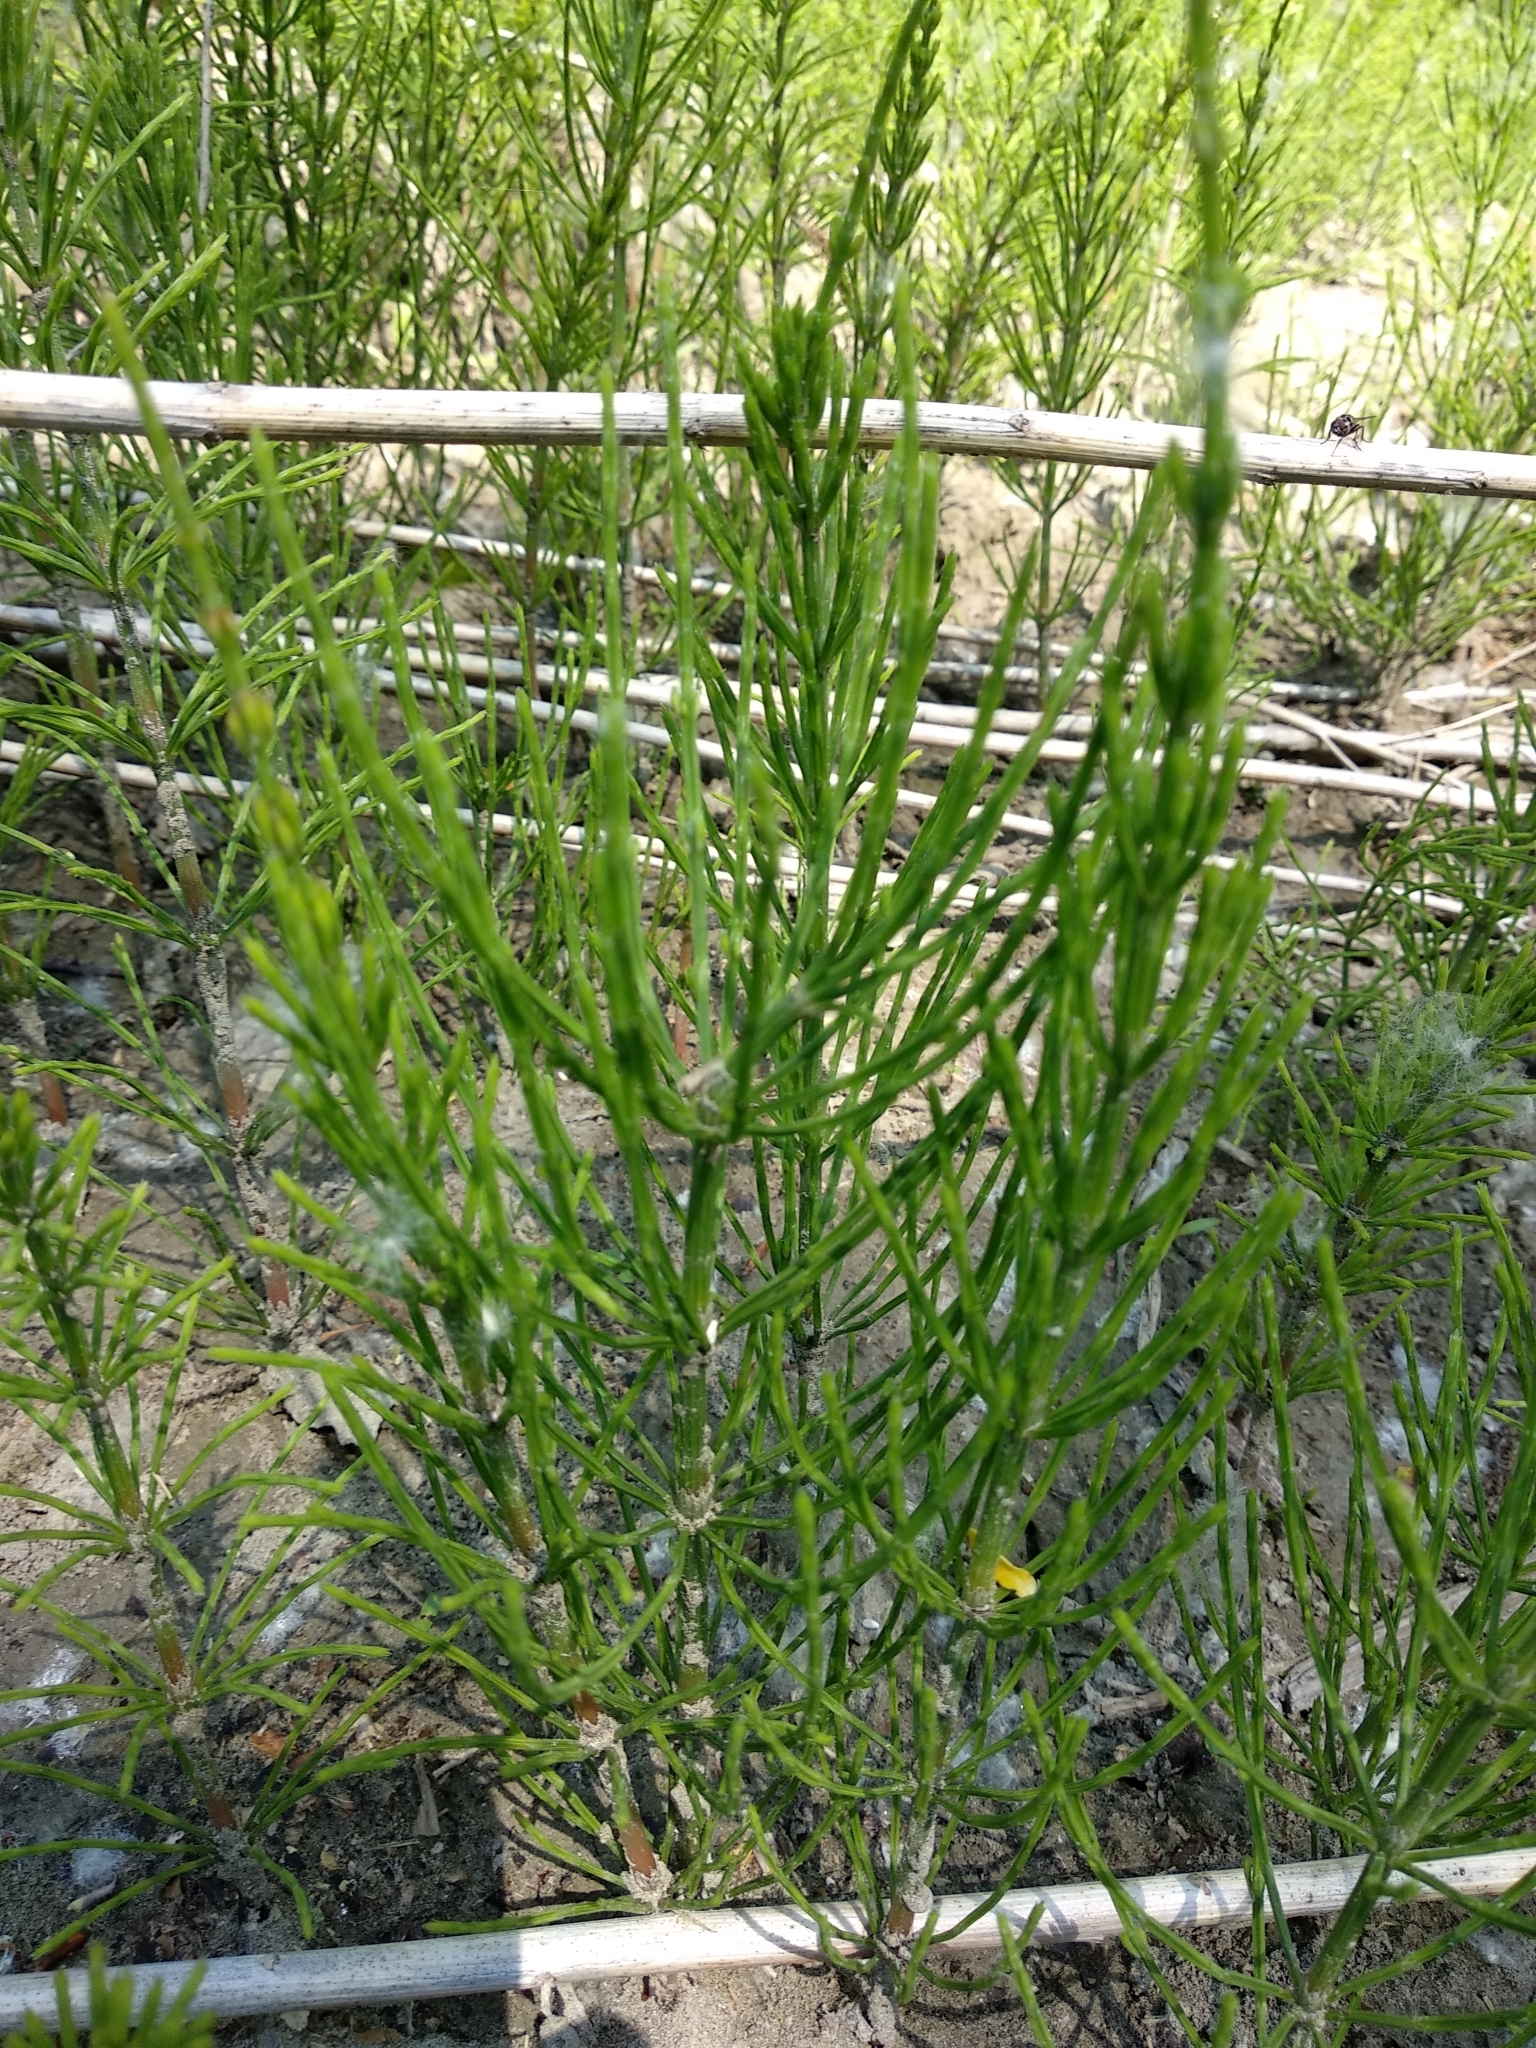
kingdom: Plantae
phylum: Tracheophyta
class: Polypodiopsida
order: Equisetales
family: Equisetaceae
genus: Equisetum
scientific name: Equisetum arvense
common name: Field horsetail
